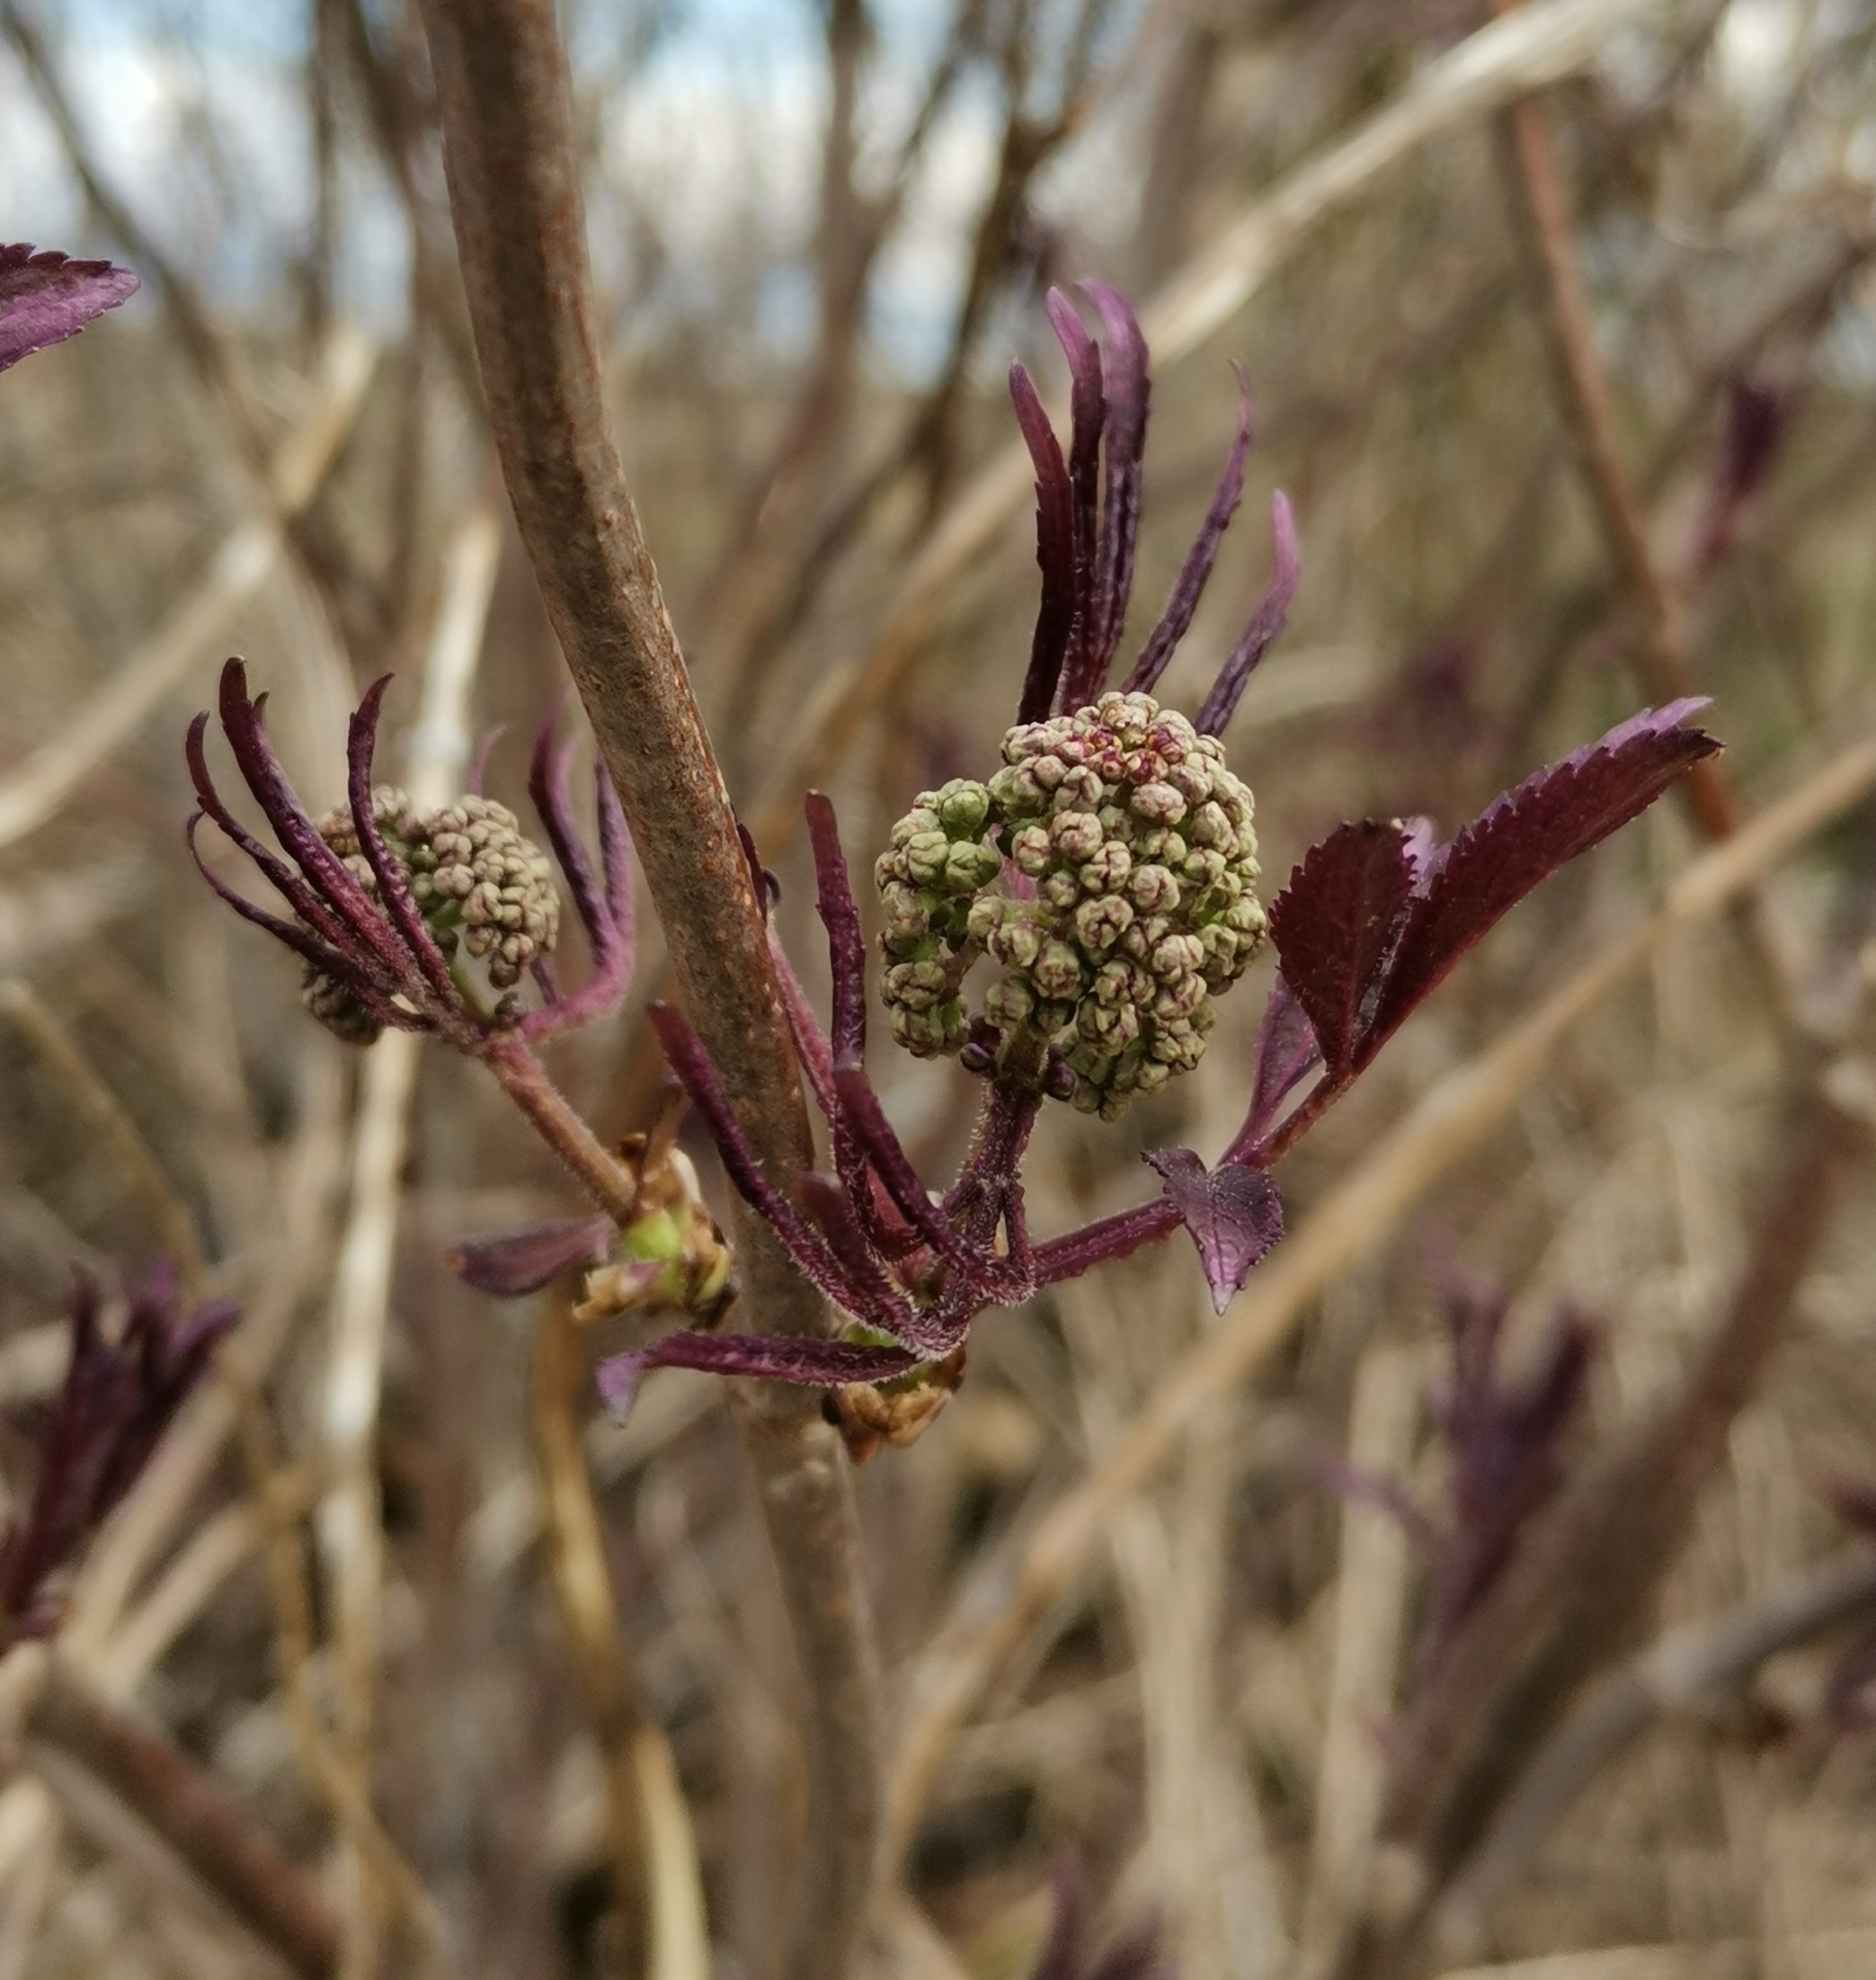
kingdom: Plantae
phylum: Tracheophyta
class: Magnoliopsida
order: Dipsacales
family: Viburnaceae
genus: Sambucus
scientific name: Sambucus racemosa
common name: Red-berried elder
